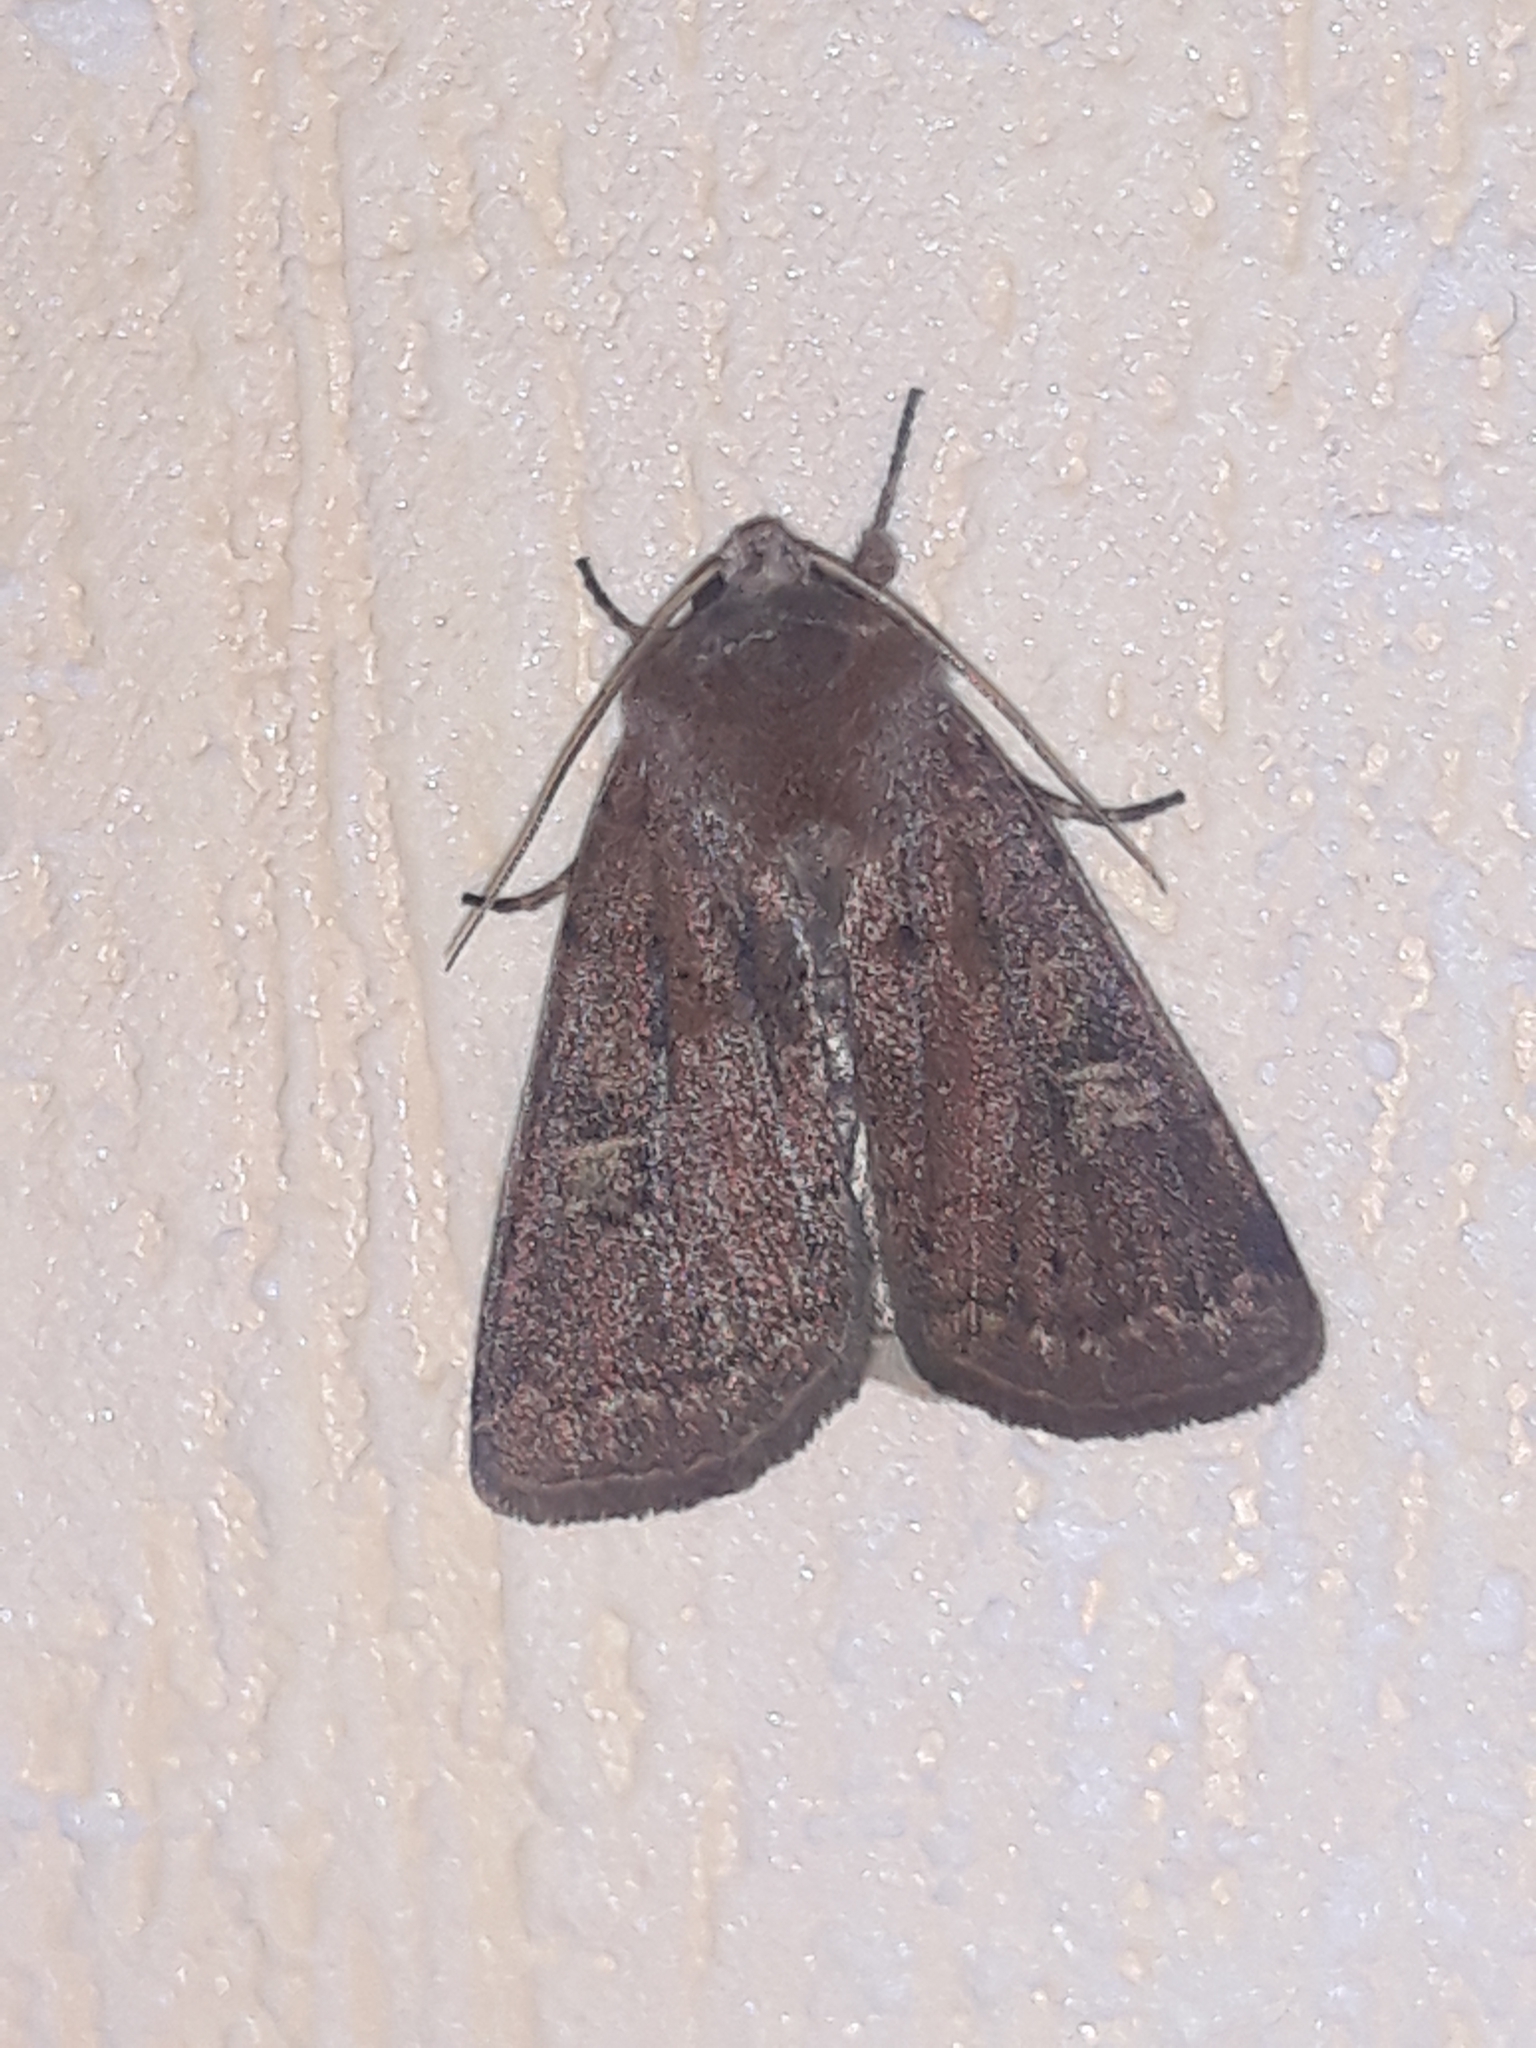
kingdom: Animalia
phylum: Arthropoda
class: Insecta
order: Lepidoptera
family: Noctuidae
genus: Xestia
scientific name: Xestia xanthographa
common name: Square-spot rustic
